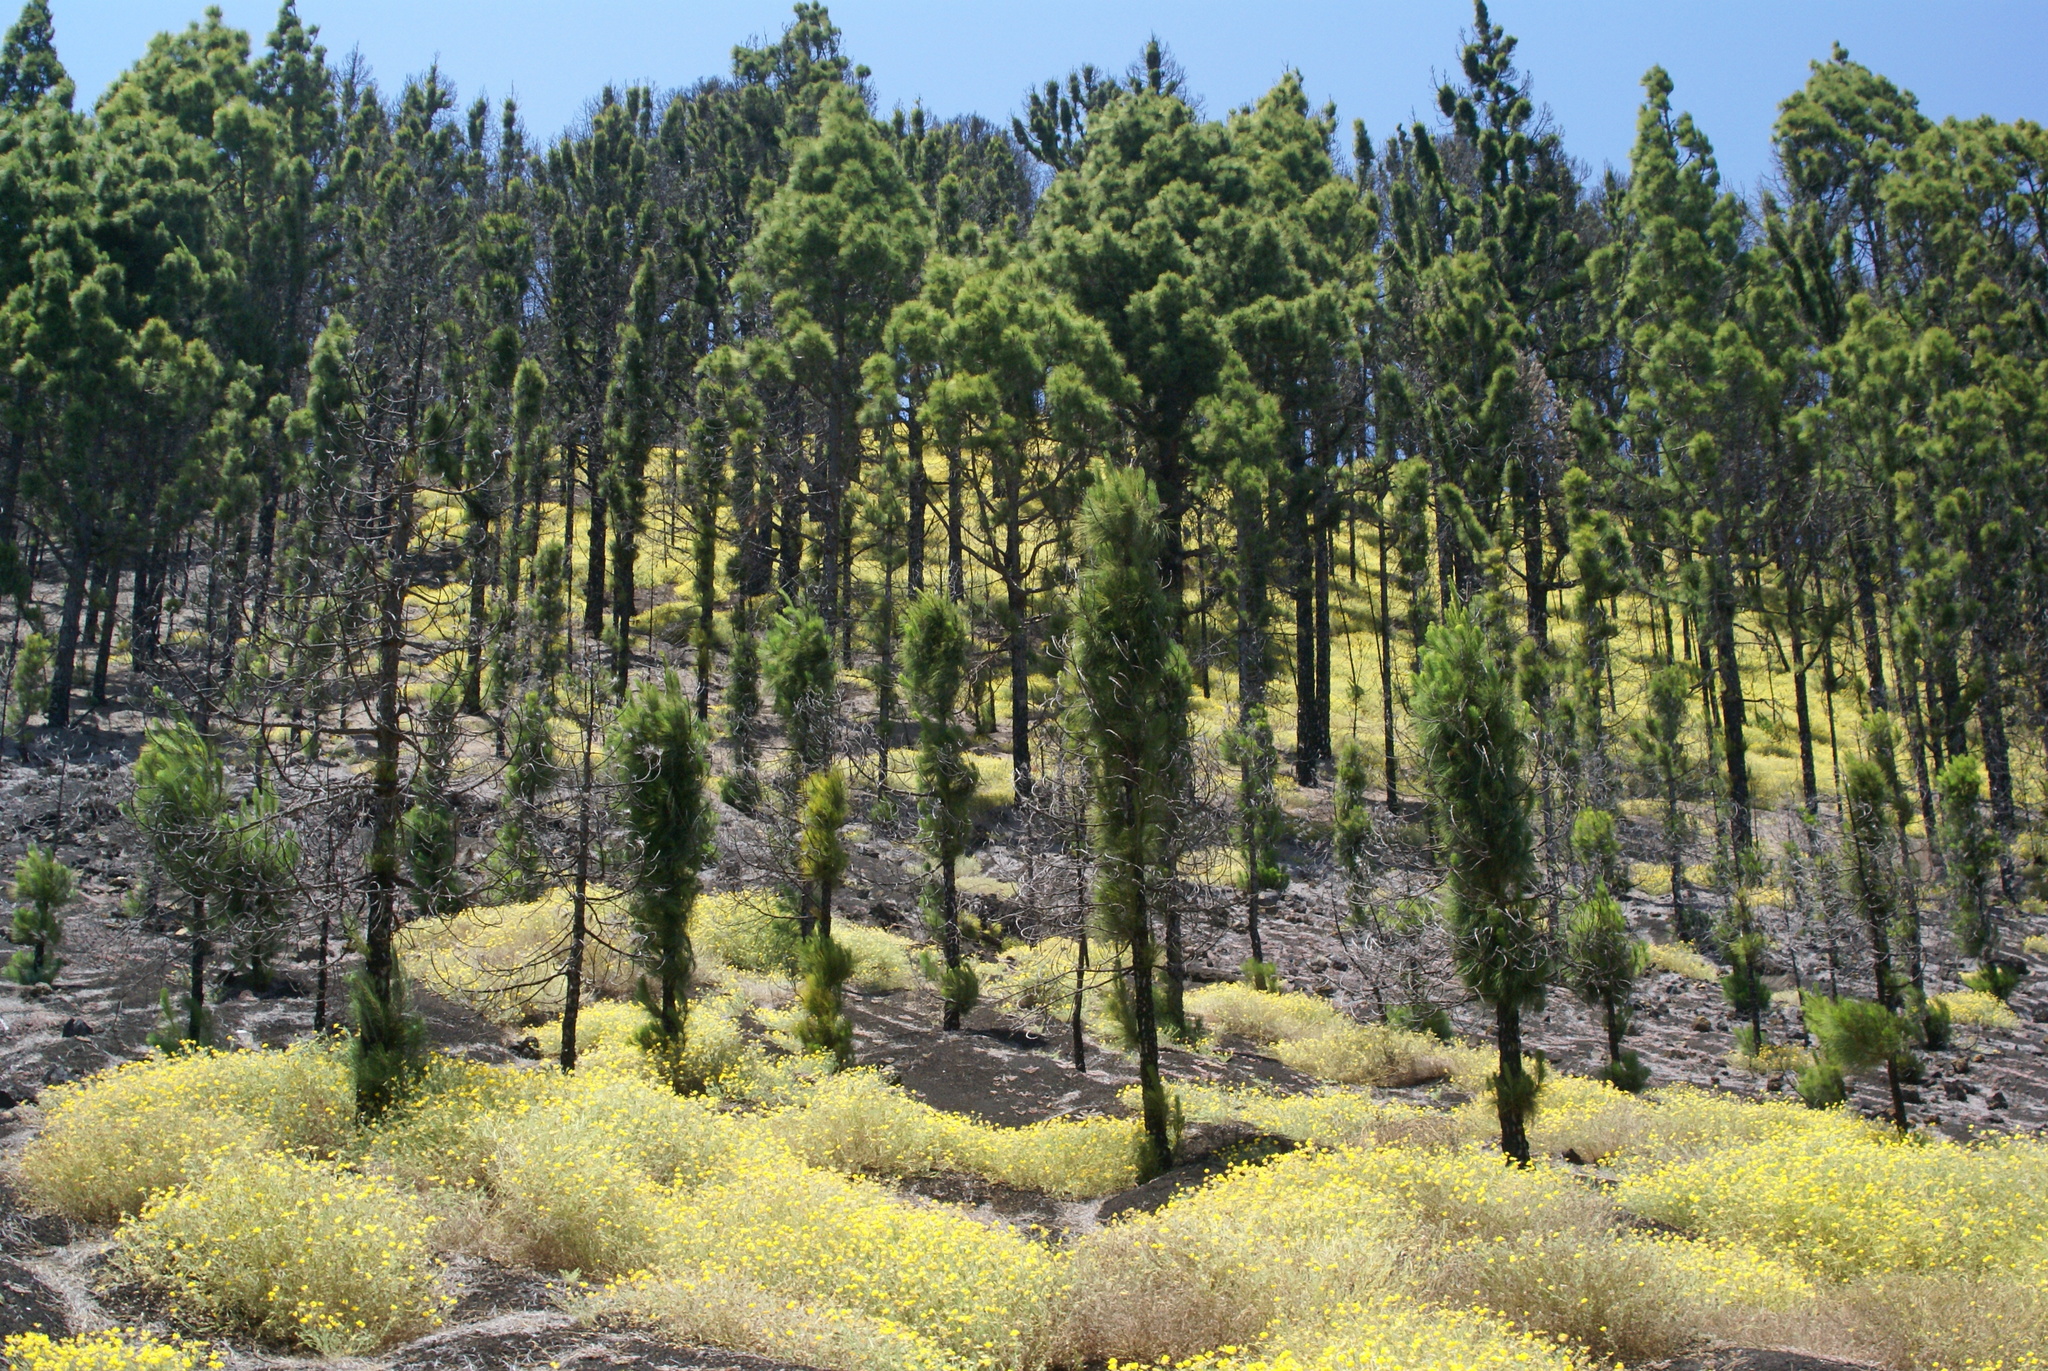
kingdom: Plantae
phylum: Tracheophyta
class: Pinopsida
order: Pinales
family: Pinaceae
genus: Pinus
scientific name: Pinus canariensis
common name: Canary islands pine
